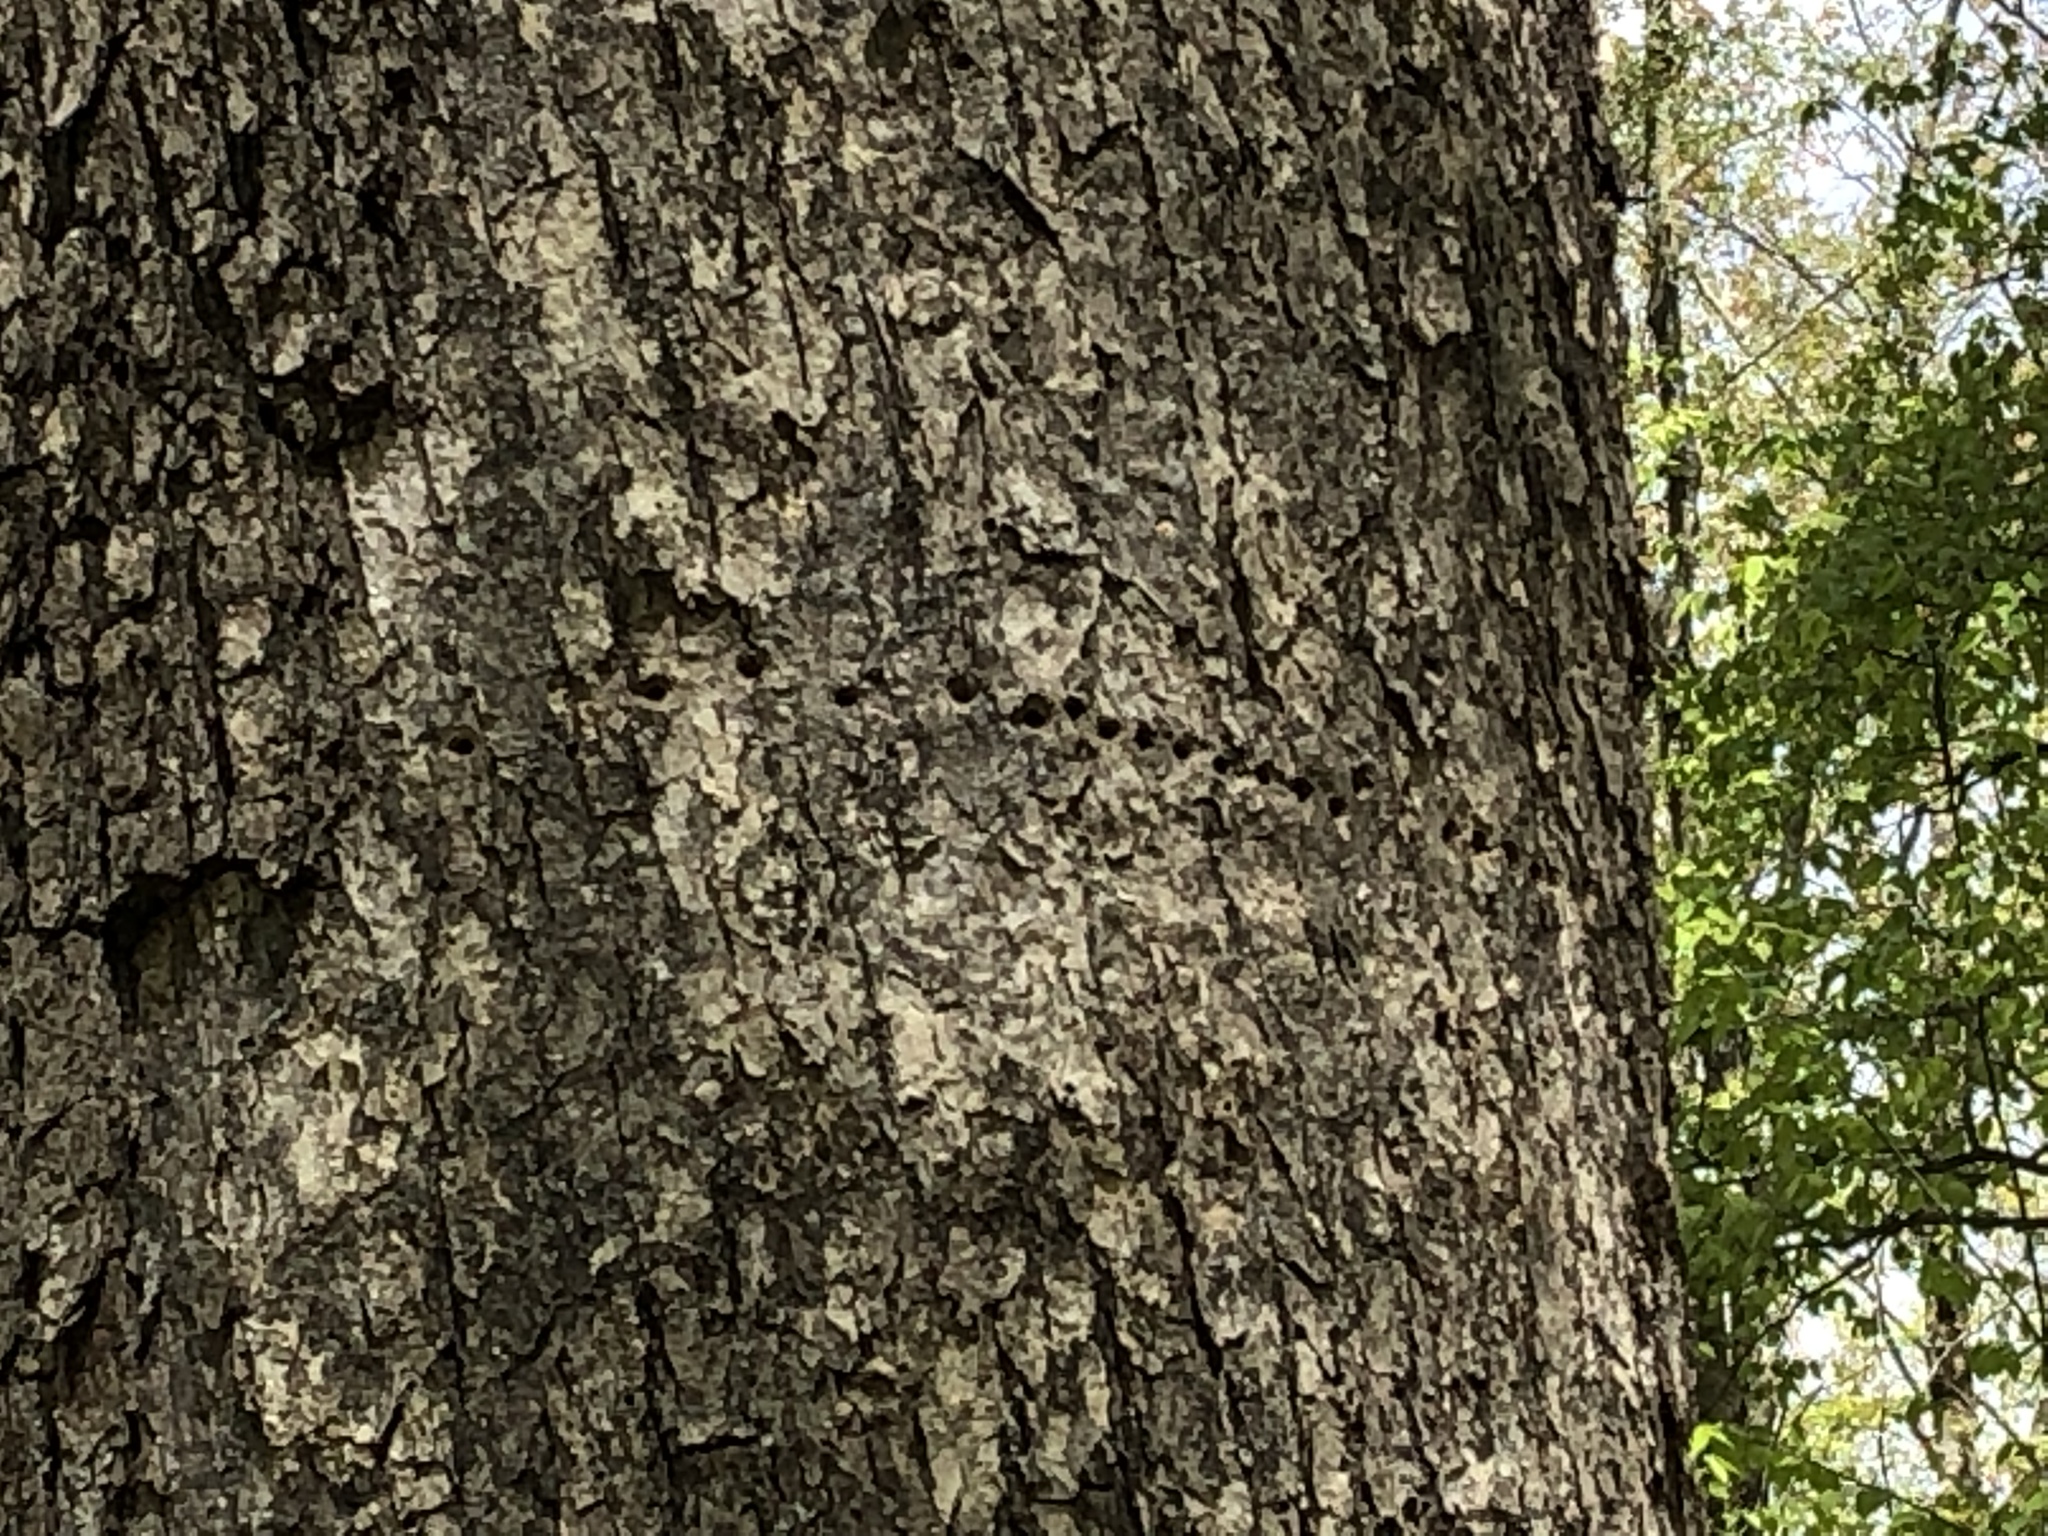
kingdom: Animalia
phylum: Chordata
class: Aves
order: Piciformes
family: Picidae
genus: Sphyrapicus
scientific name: Sphyrapicus varius
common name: Yellow-bellied sapsucker
